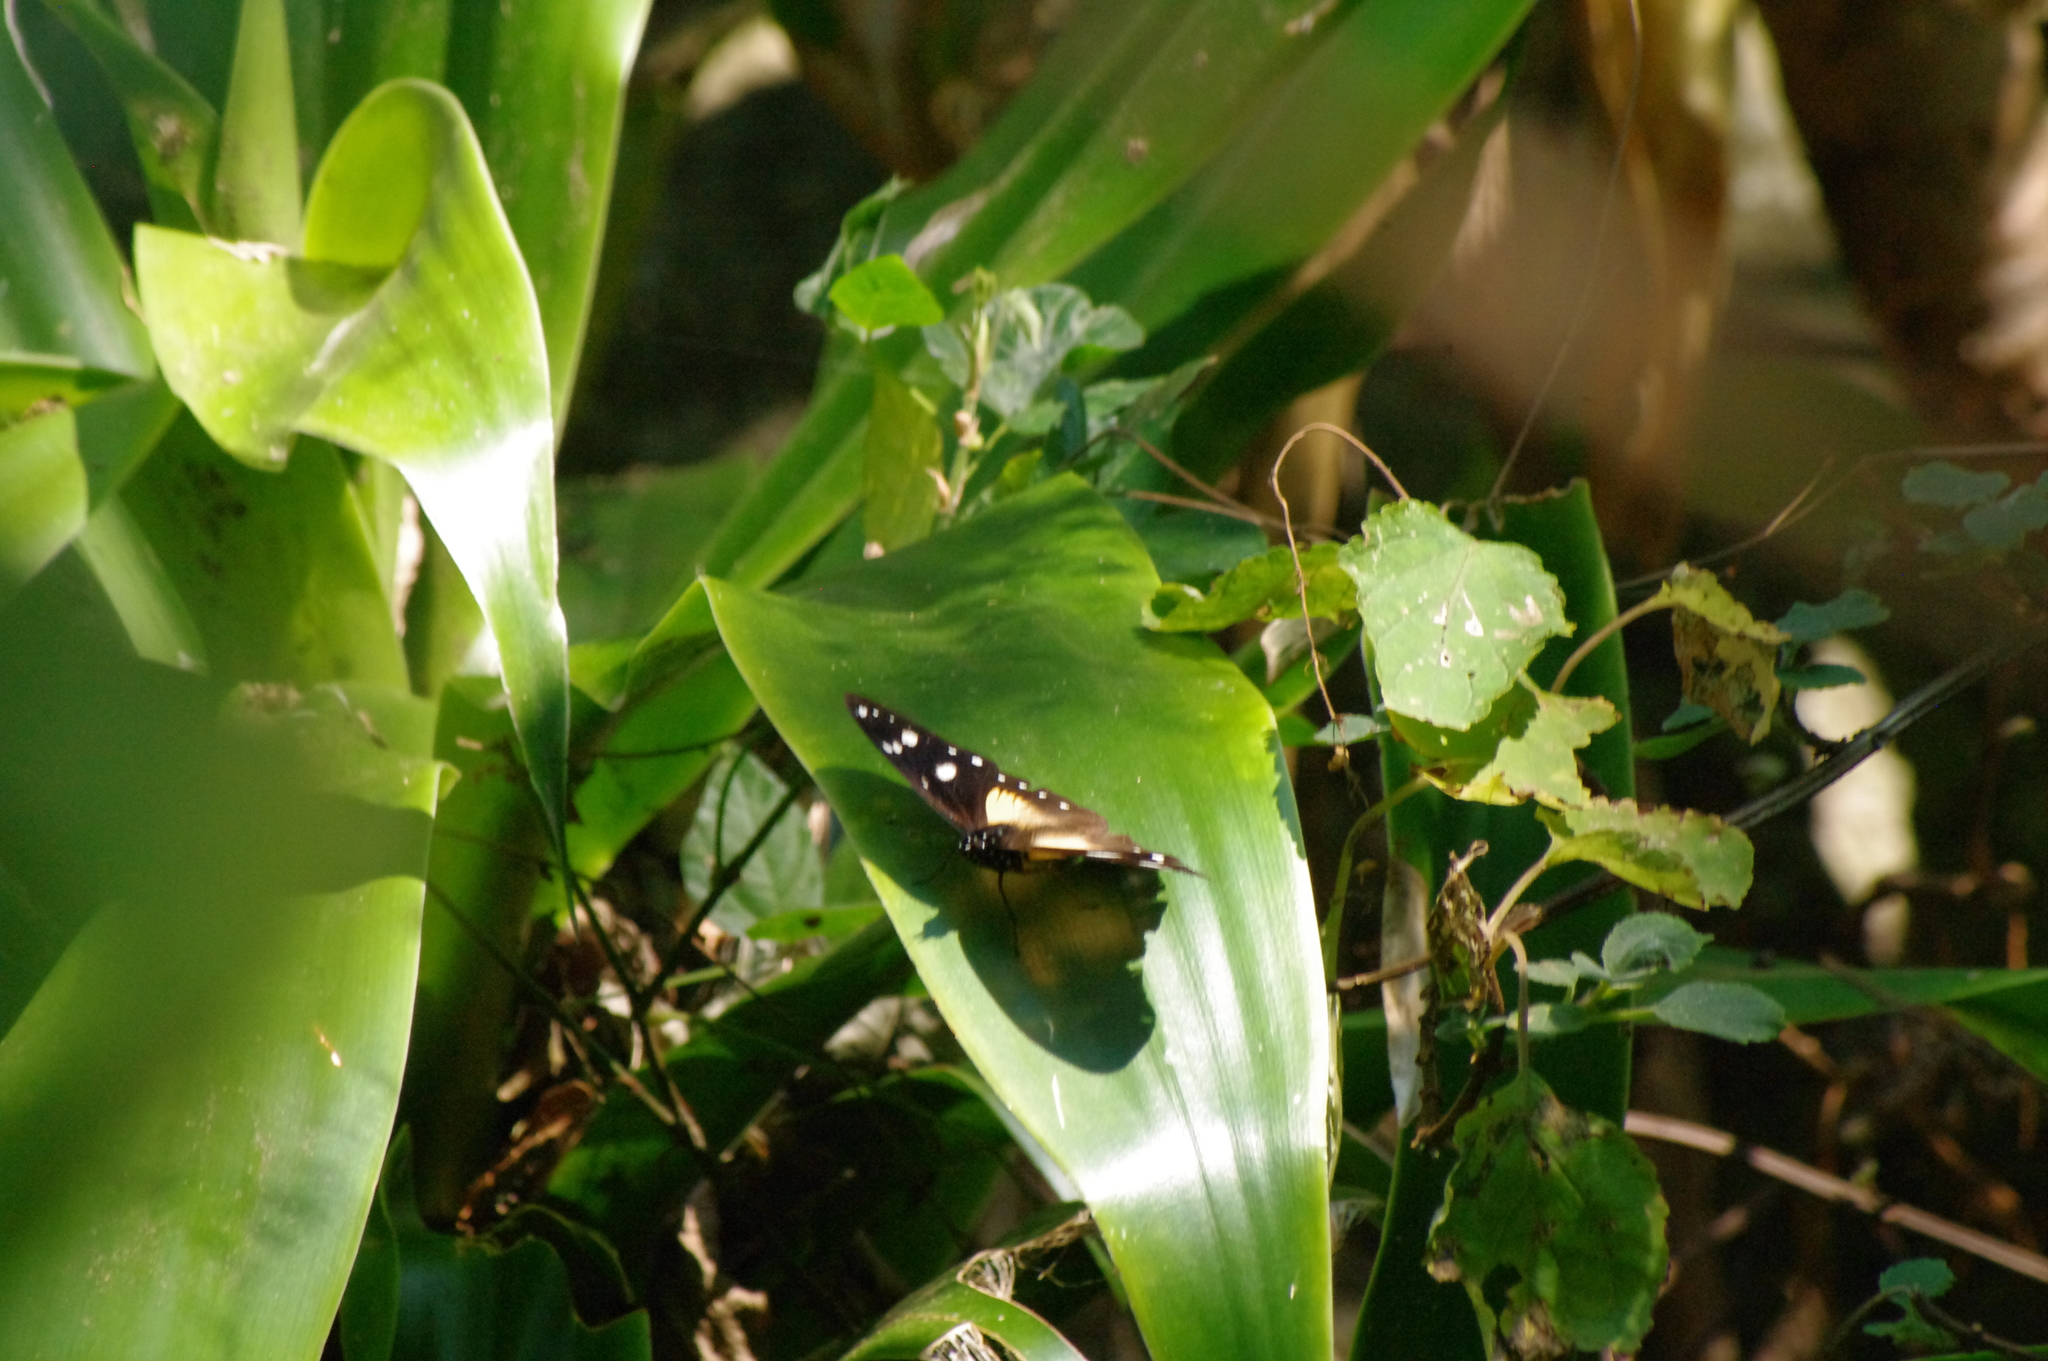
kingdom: Animalia
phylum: Arthropoda
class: Insecta
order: Lepidoptera
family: Nymphalidae
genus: Hypolimnas
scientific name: Hypolimnas dubius
